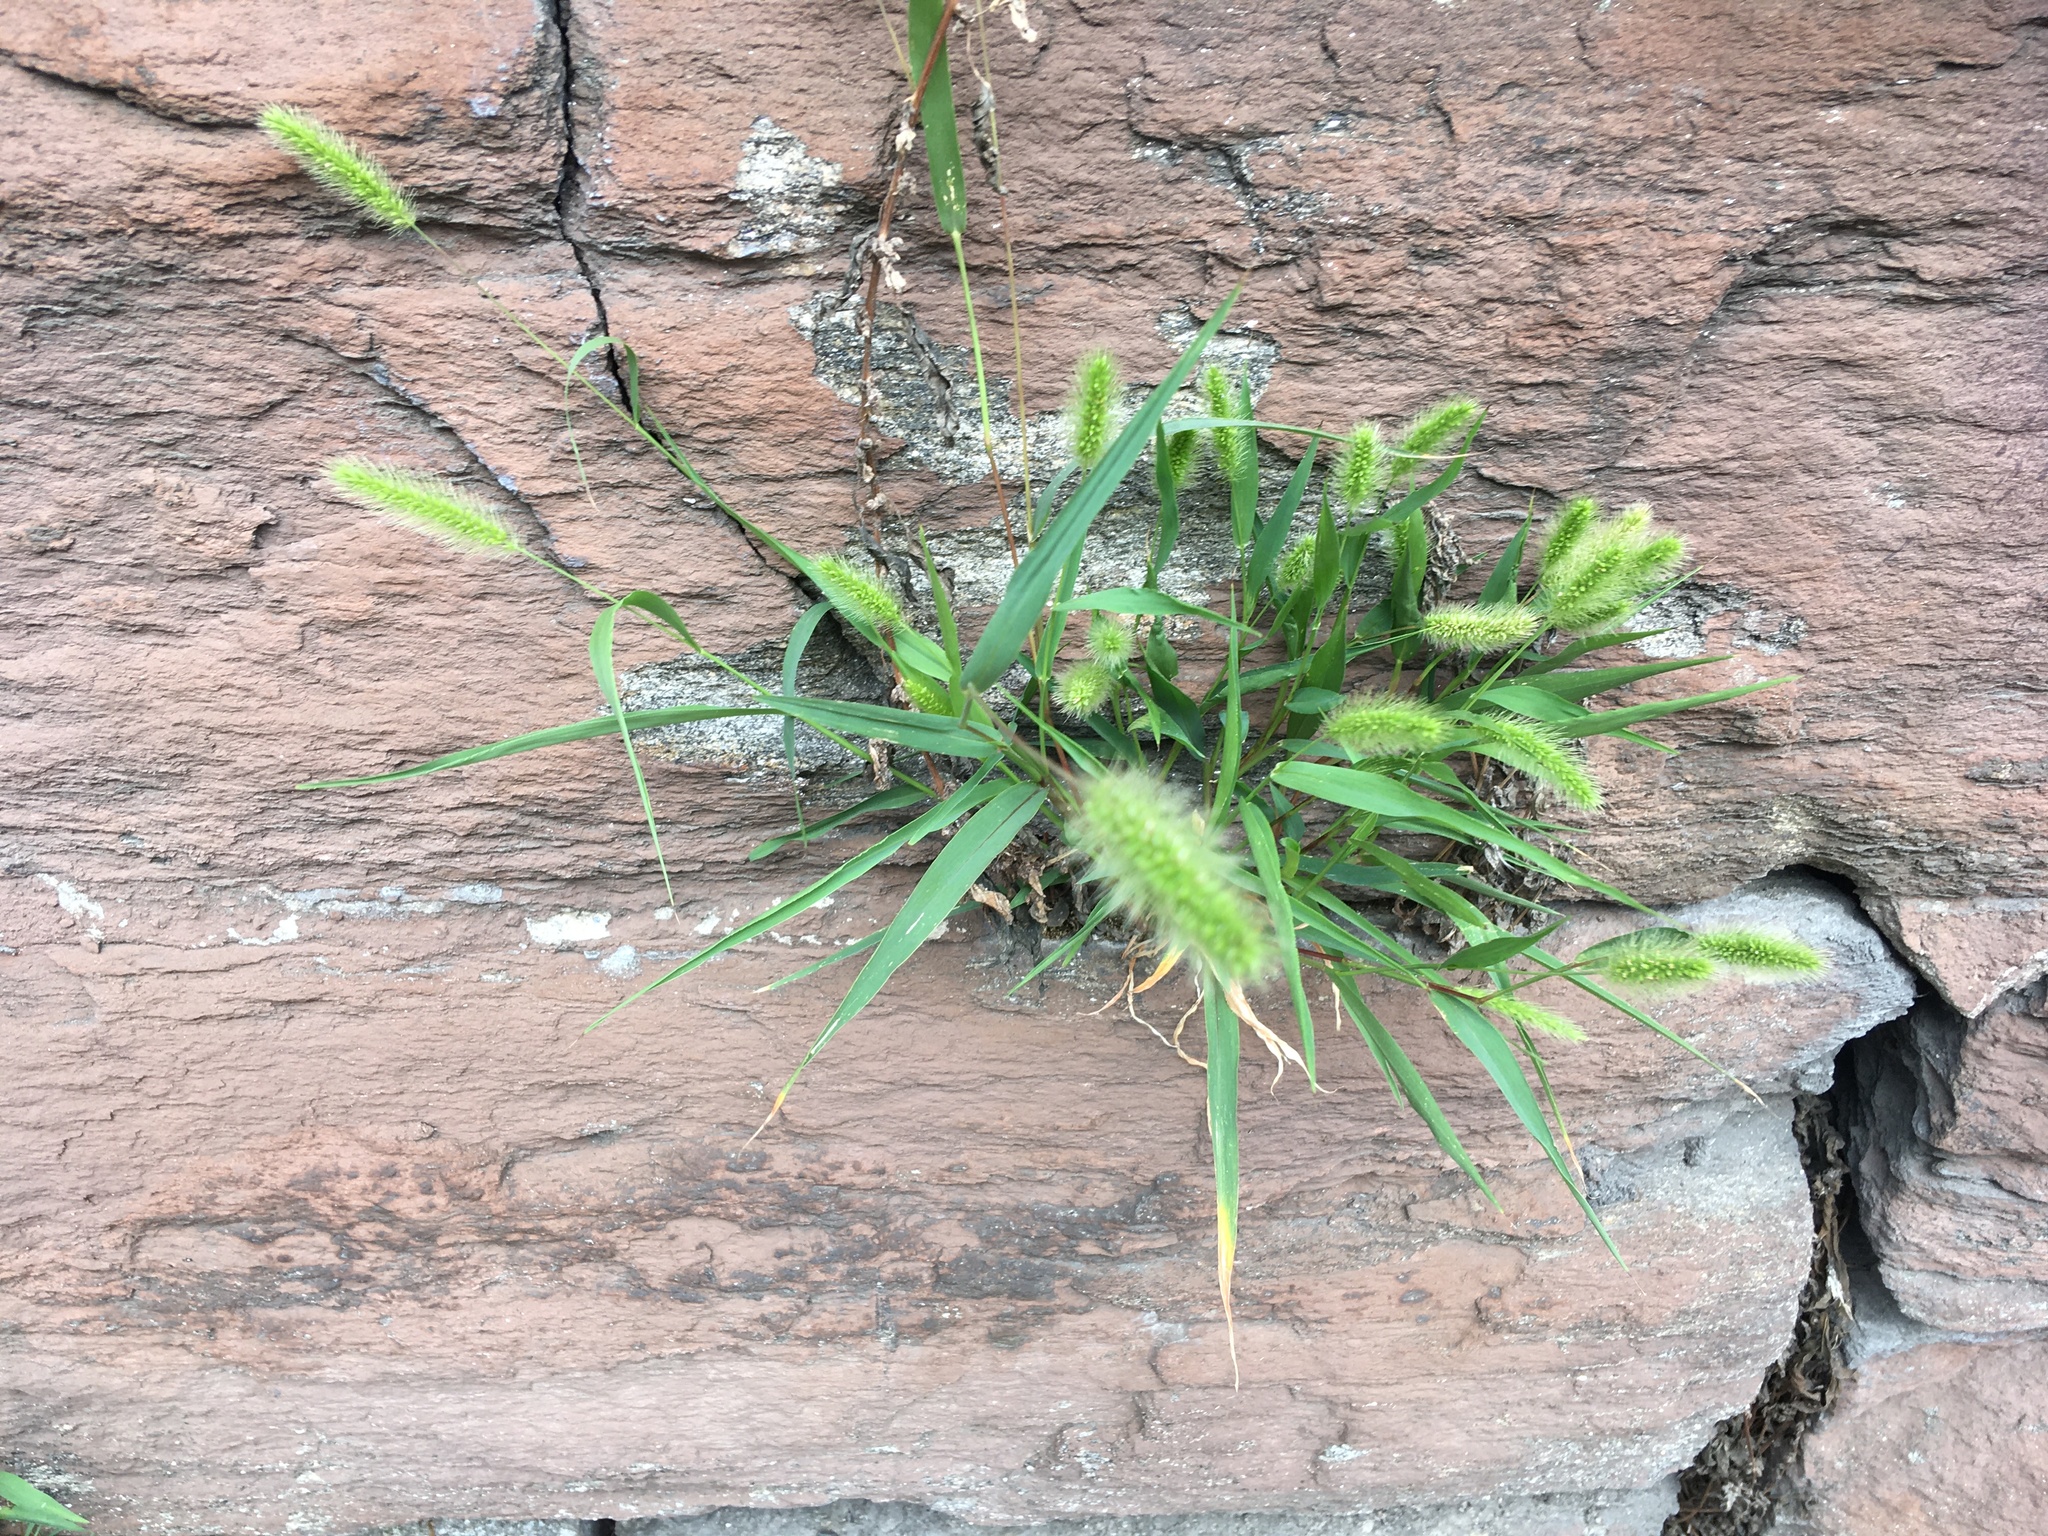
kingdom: Plantae
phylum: Tracheophyta
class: Liliopsida
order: Poales
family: Poaceae
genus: Setaria
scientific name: Setaria viridis
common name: Green bristlegrass
